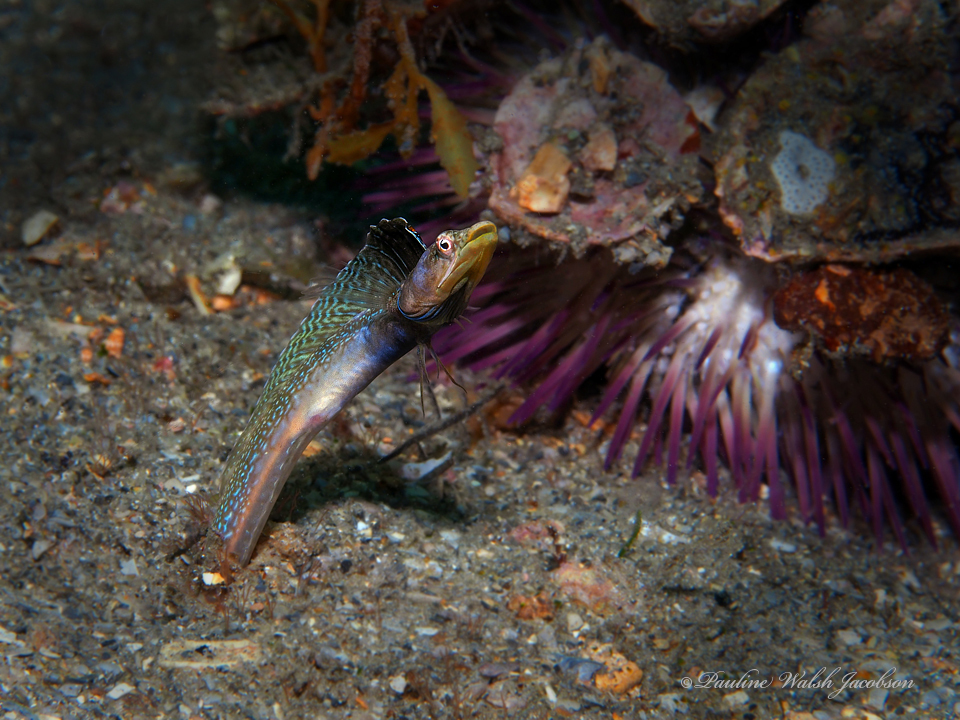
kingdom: Animalia
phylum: Chordata
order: Perciformes
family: Chaenopsidae
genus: Chaenopsis
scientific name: Chaenopsis ocellata
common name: Bluethroat pikeblenny
